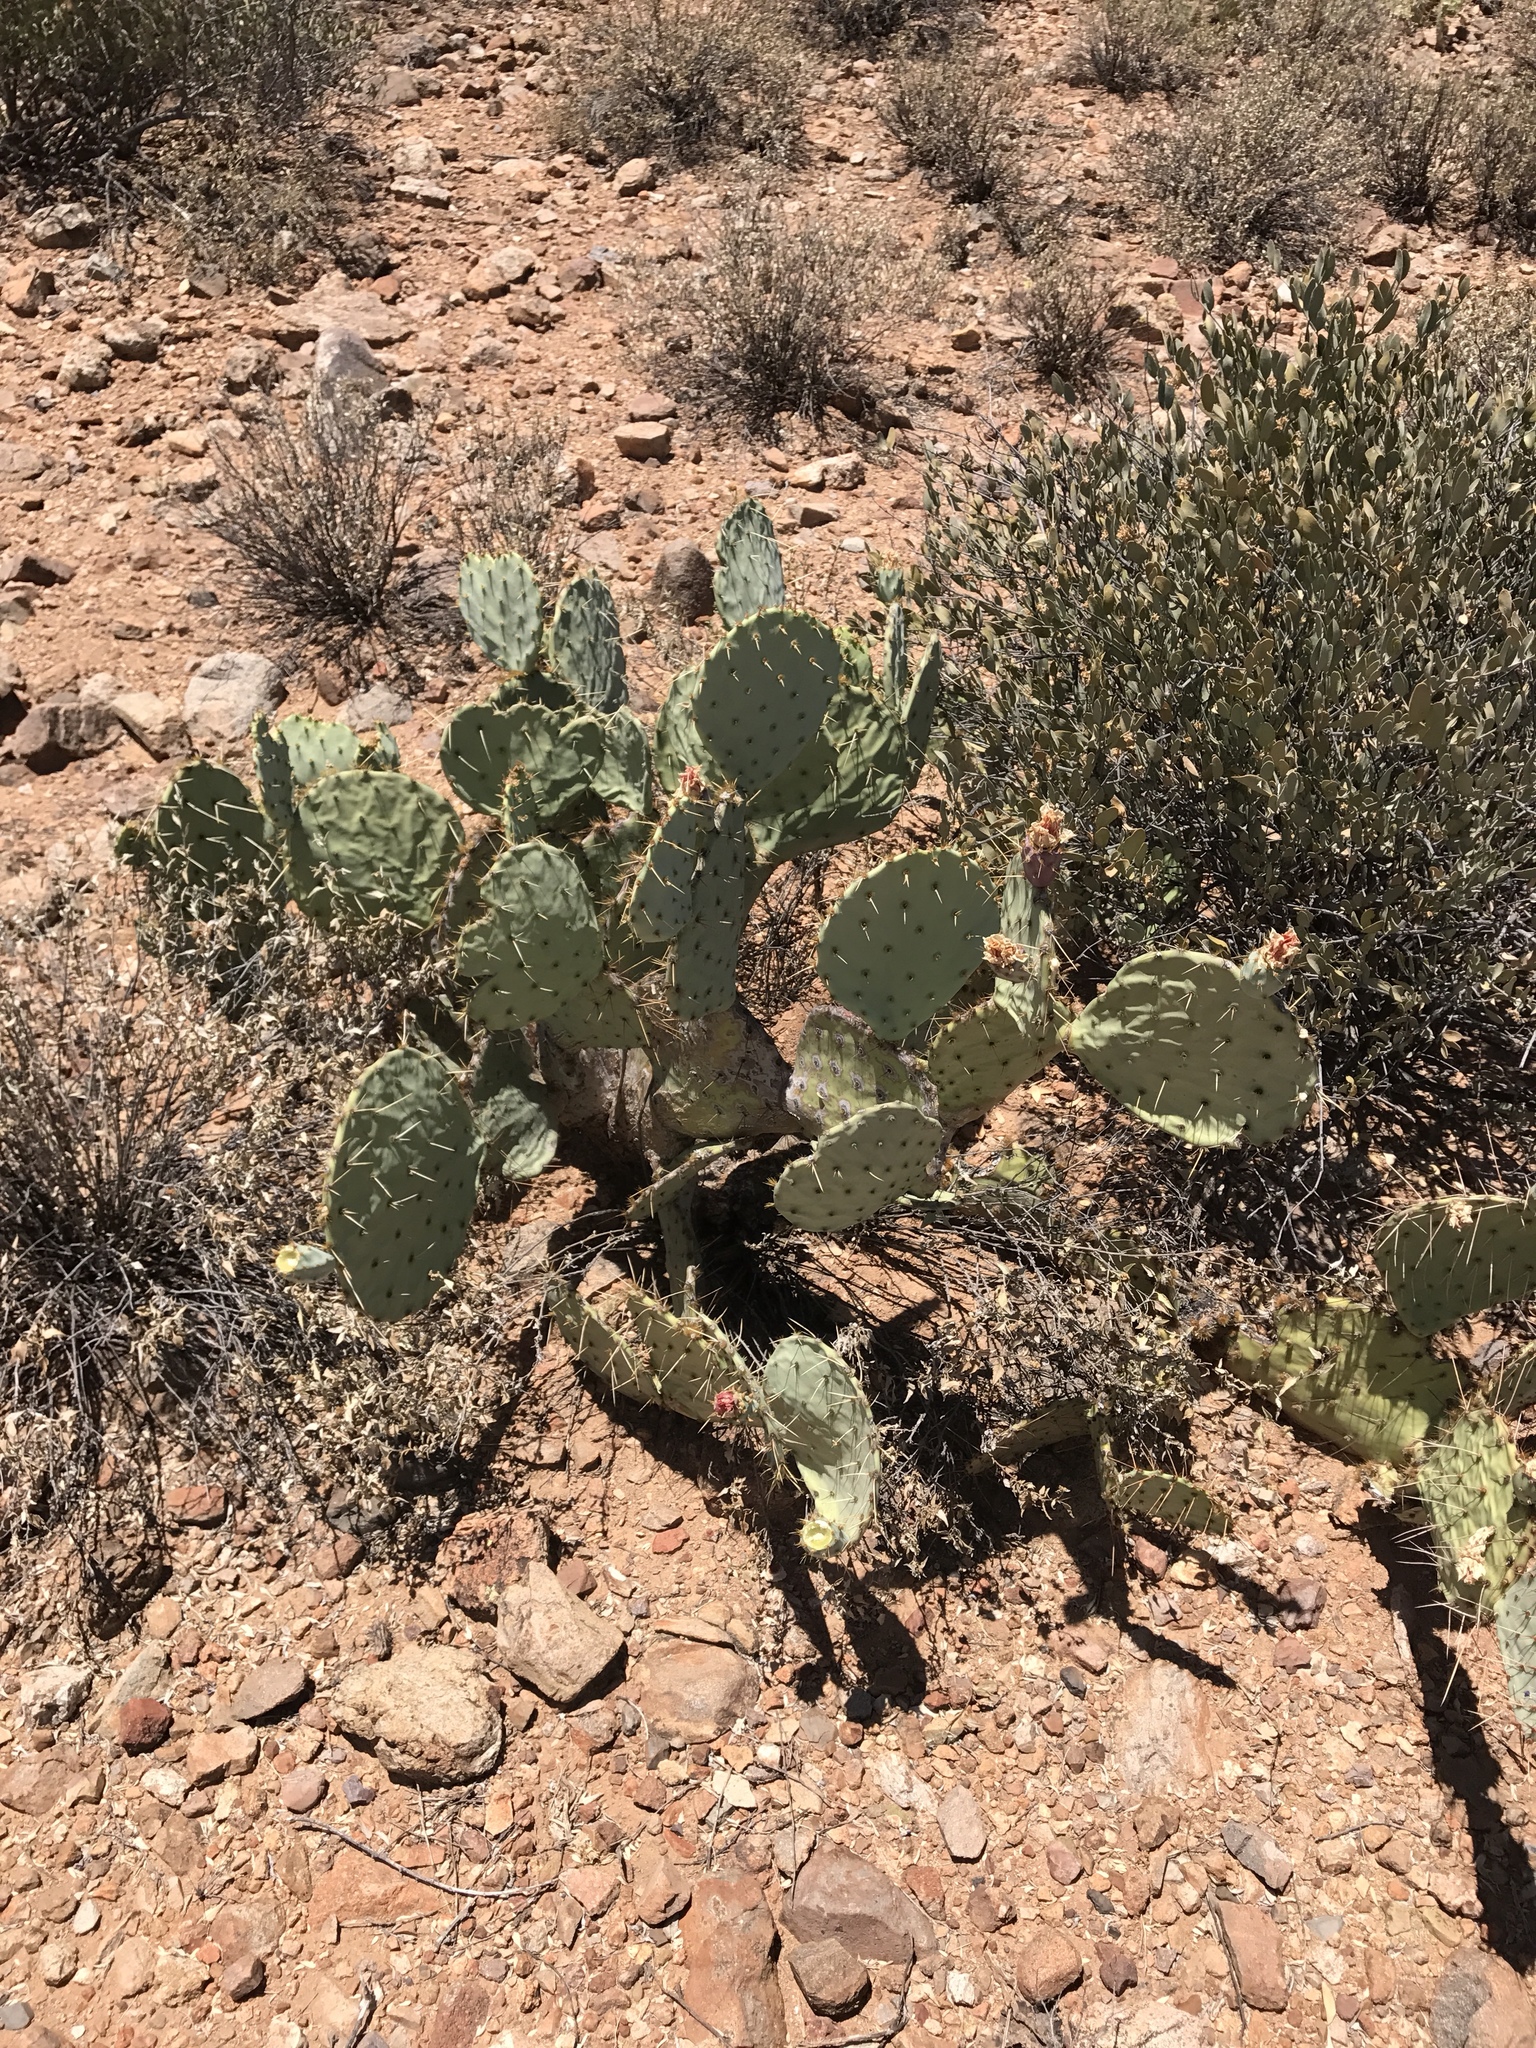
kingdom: Plantae
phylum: Tracheophyta
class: Magnoliopsida
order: Caryophyllales
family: Cactaceae
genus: Opuntia
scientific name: Opuntia engelmannii
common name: Cactus-apple
